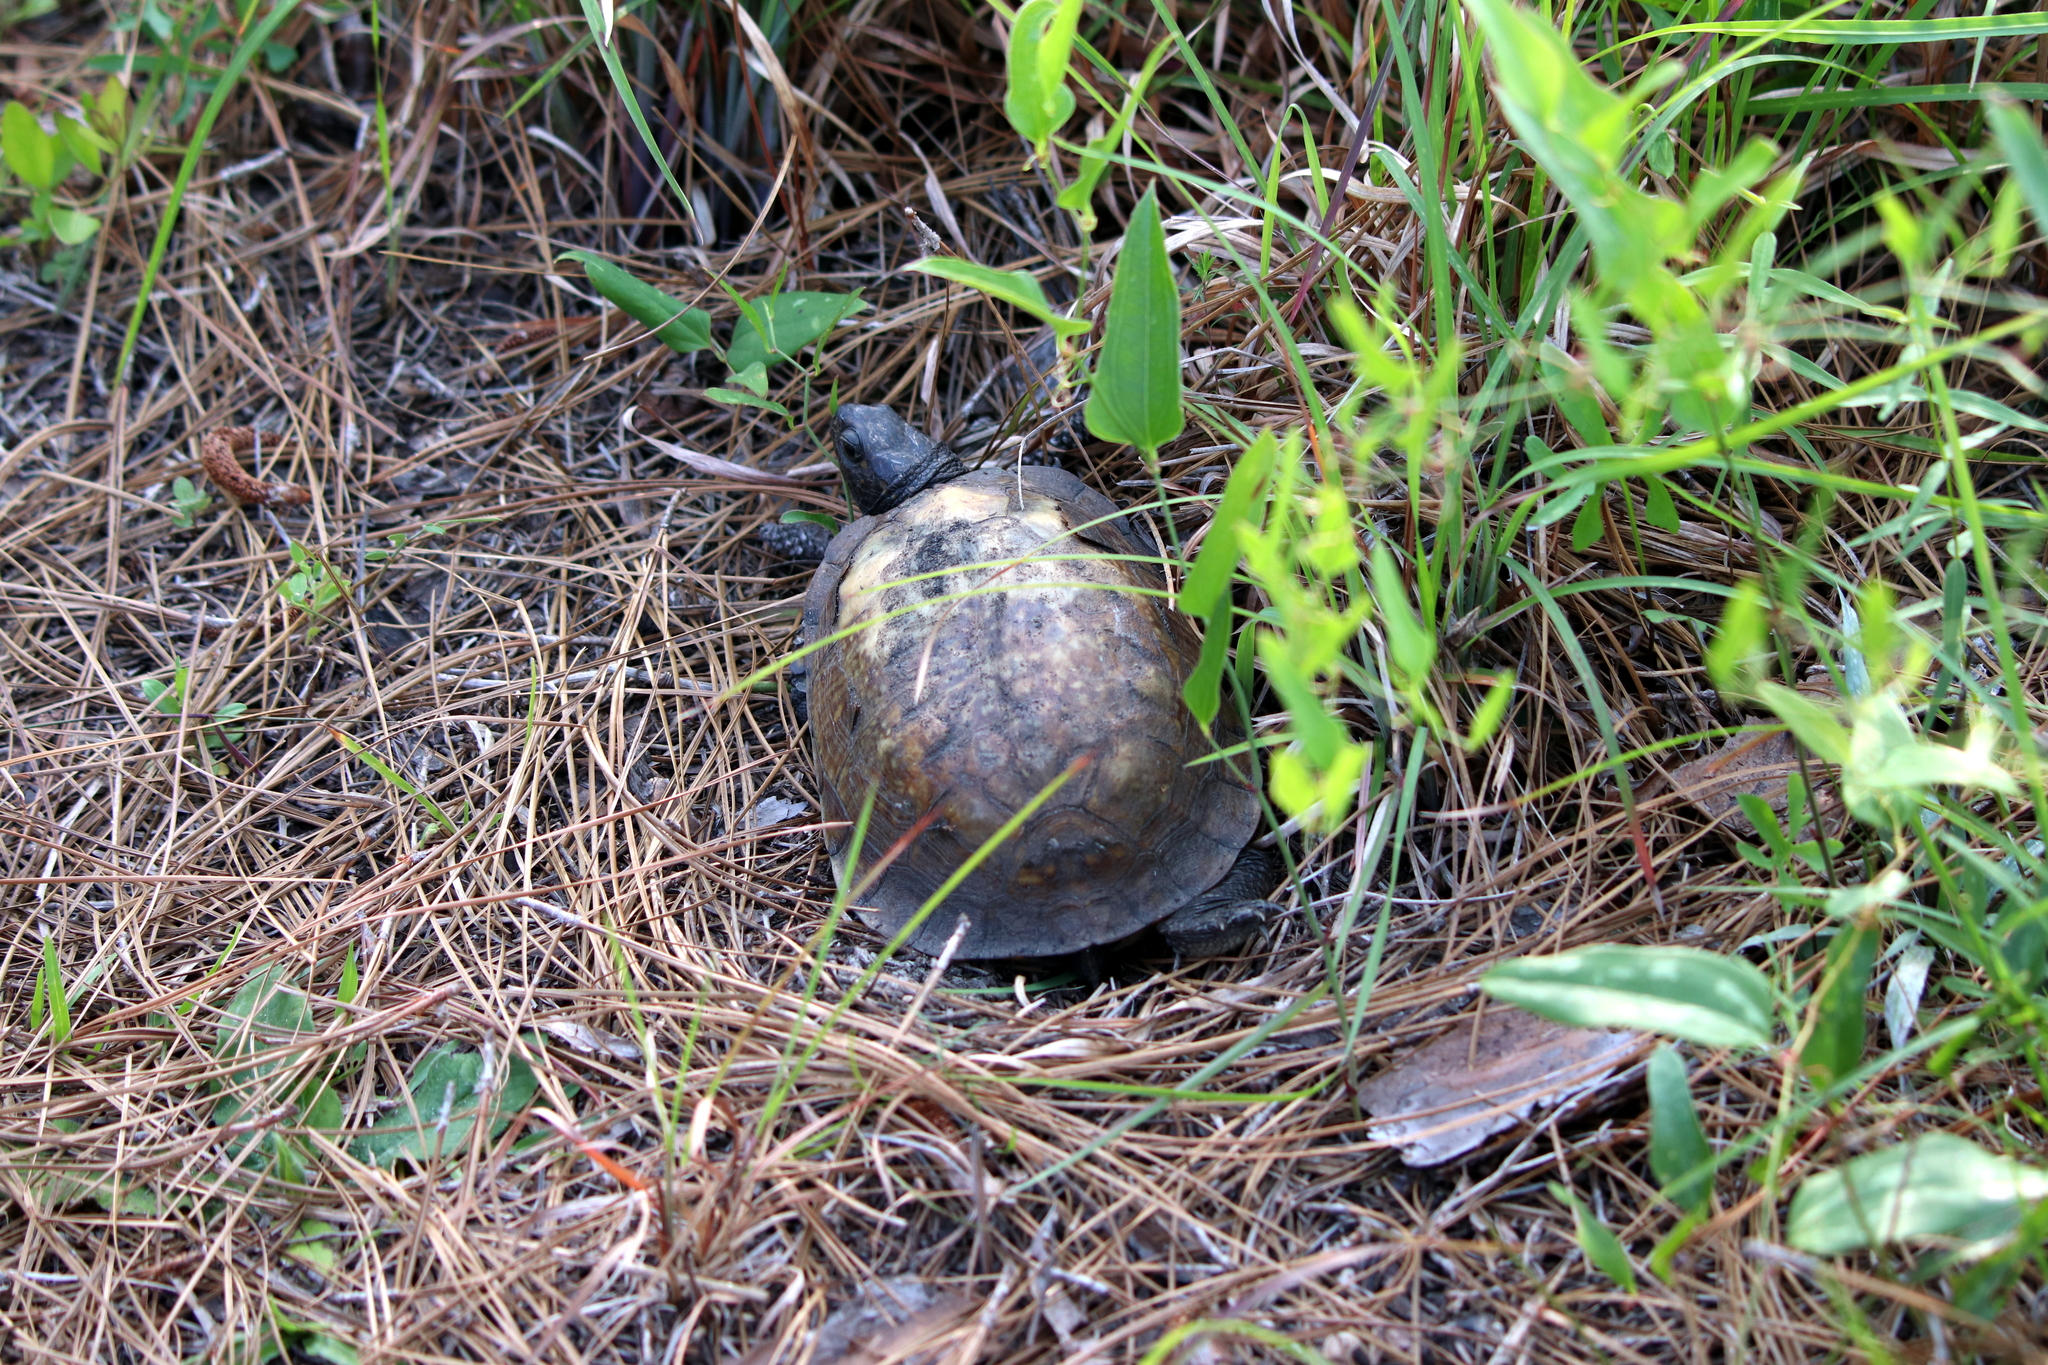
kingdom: Animalia
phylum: Chordata
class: Testudines
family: Emydidae
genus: Terrapene
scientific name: Terrapene carolina
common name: Common box turtle
